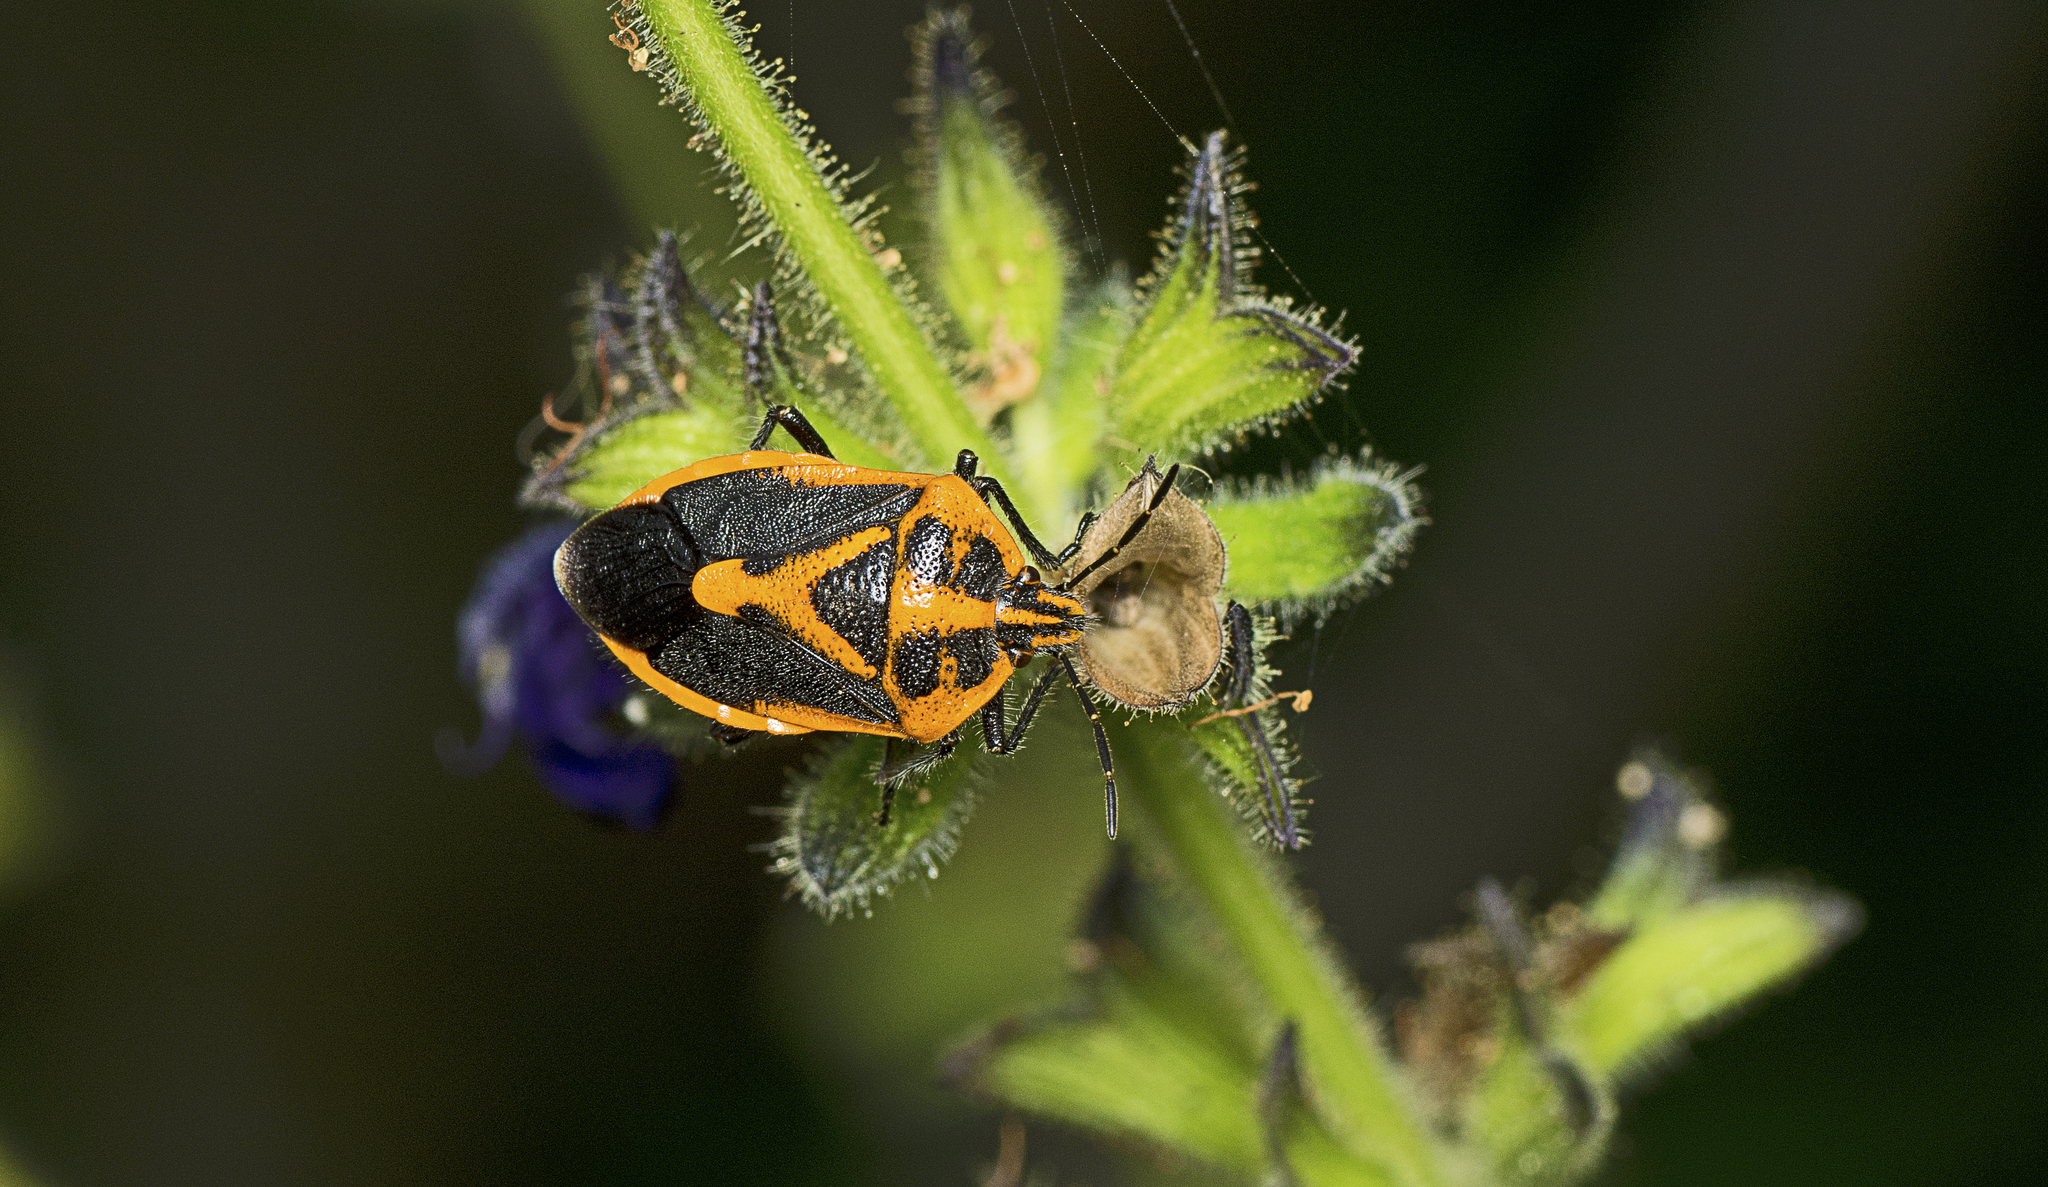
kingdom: Animalia
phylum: Arthropoda
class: Insecta
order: Hemiptera
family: Pentatomidae
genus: Agonoscelis
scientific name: Agonoscelis rutila
